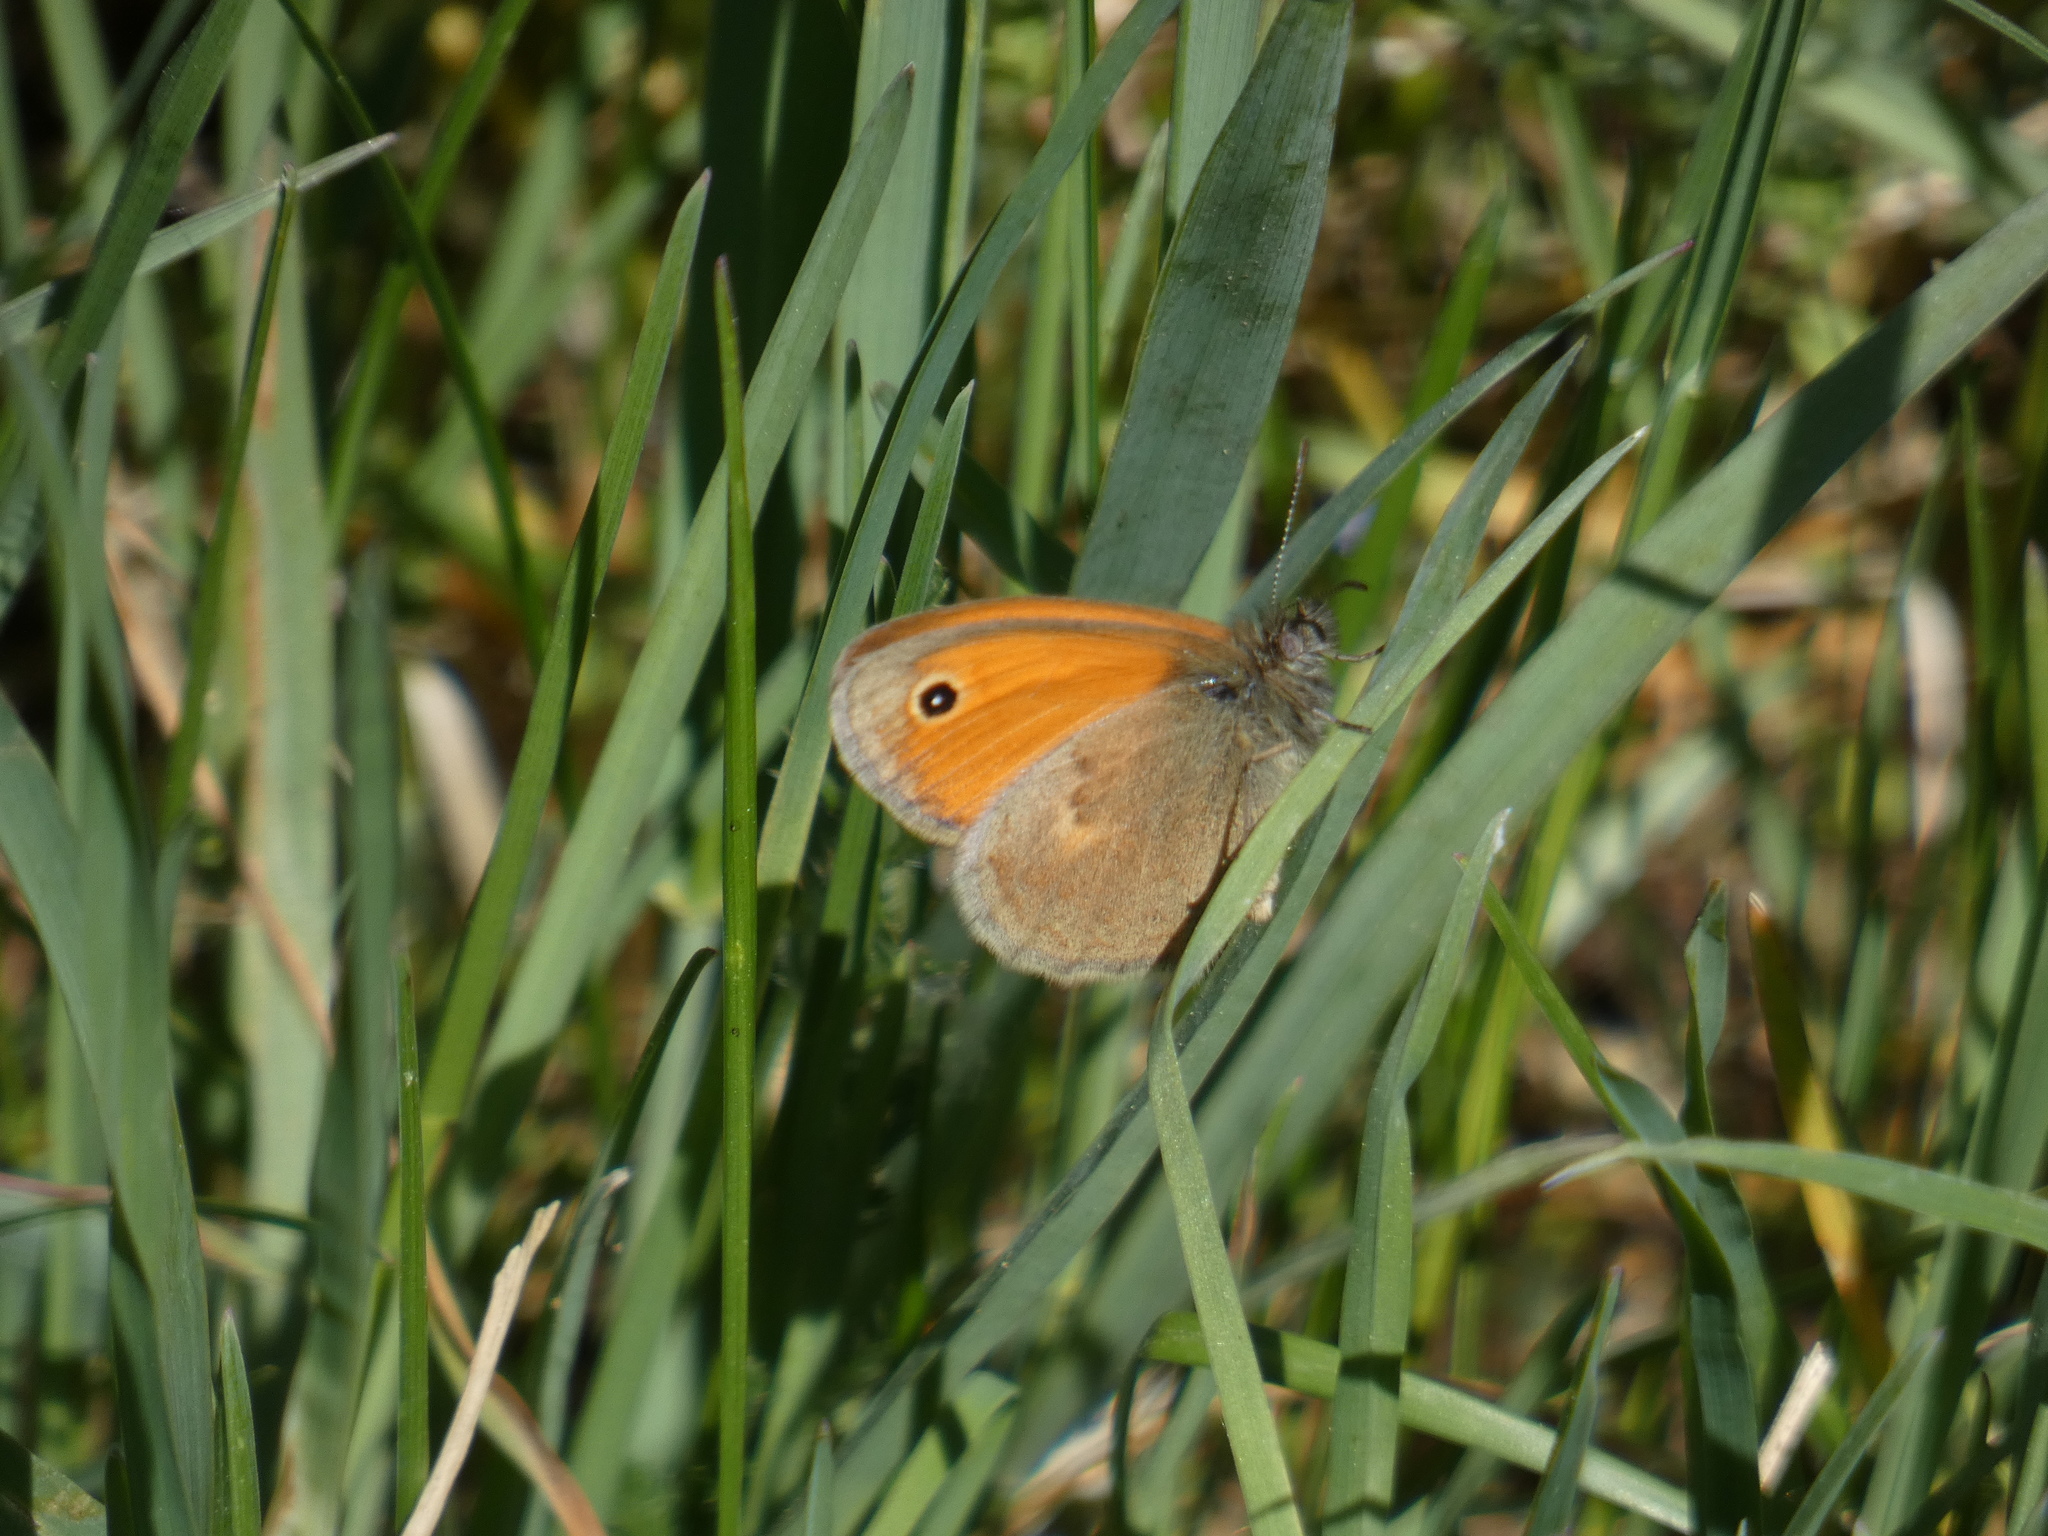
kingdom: Animalia
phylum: Arthropoda
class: Insecta
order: Lepidoptera
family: Nymphalidae
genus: Coenonympha
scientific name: Coenonympha pamphilus
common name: Small heath
